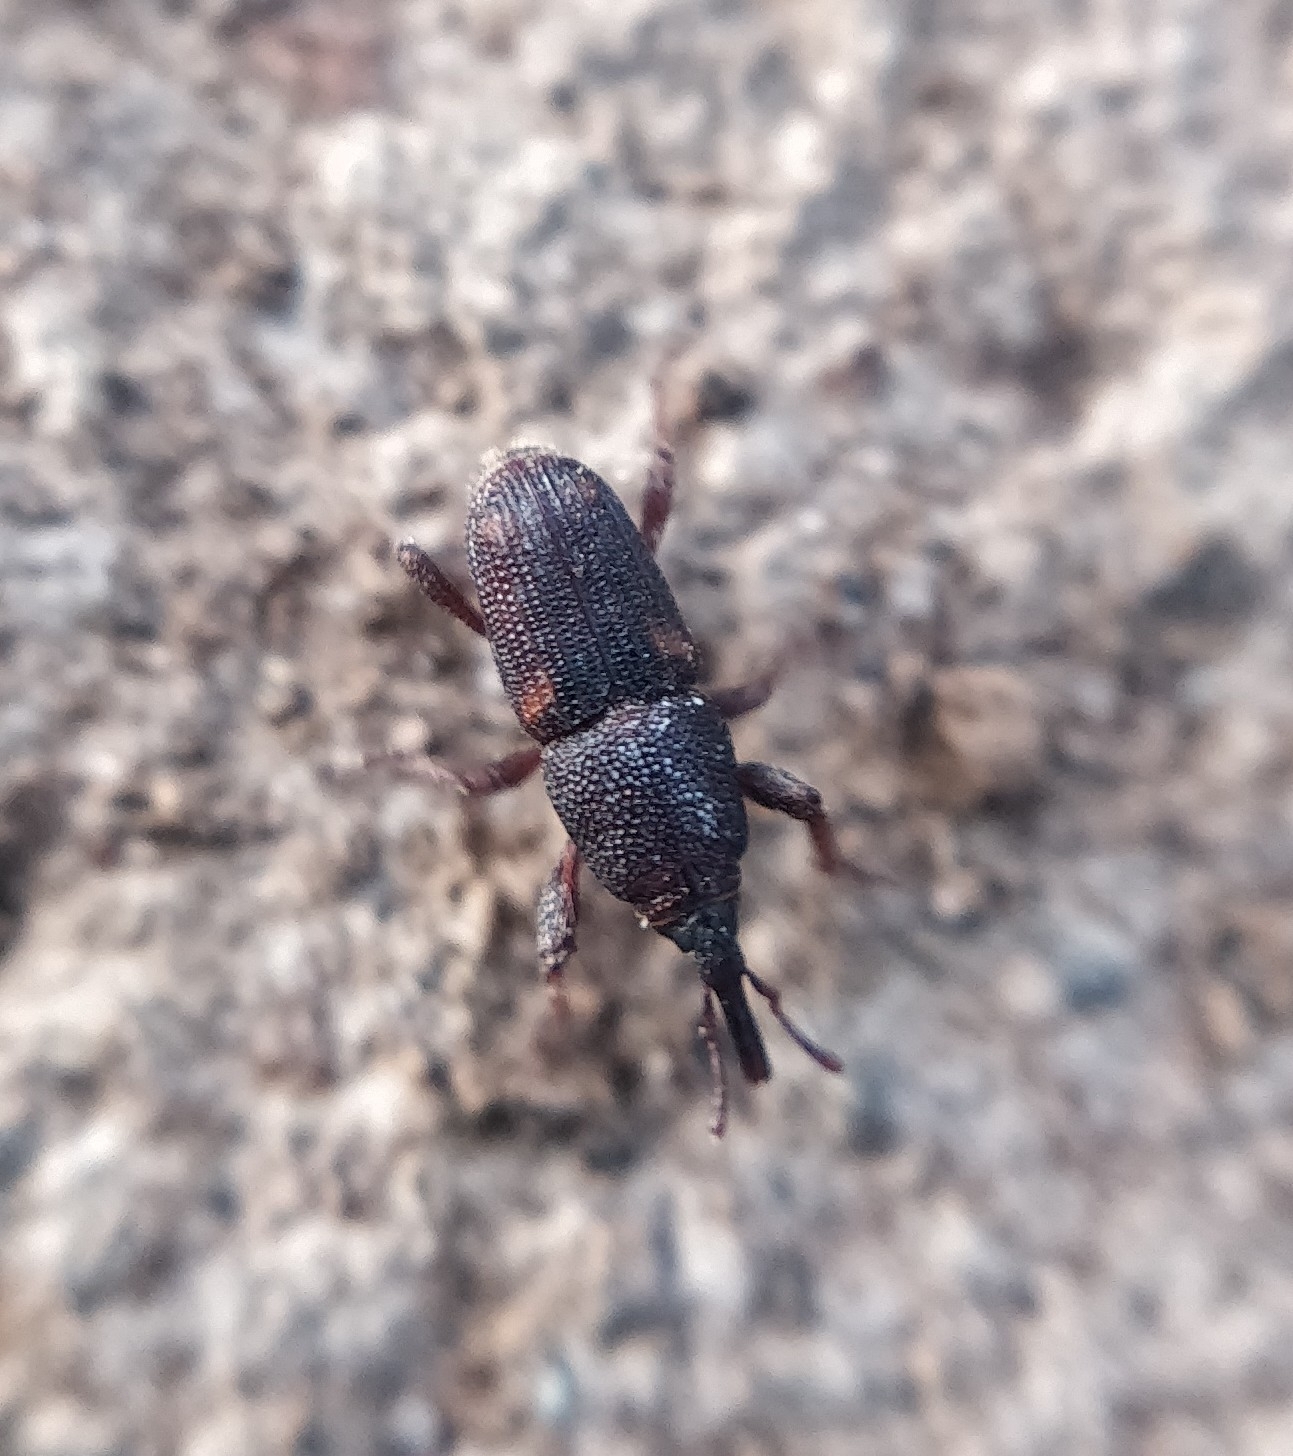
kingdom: Animalia
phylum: Arthropoda
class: Insecta
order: Coleoptera
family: Dryophthoridae
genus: Sitophilus
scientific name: Sitophilus oryzae
